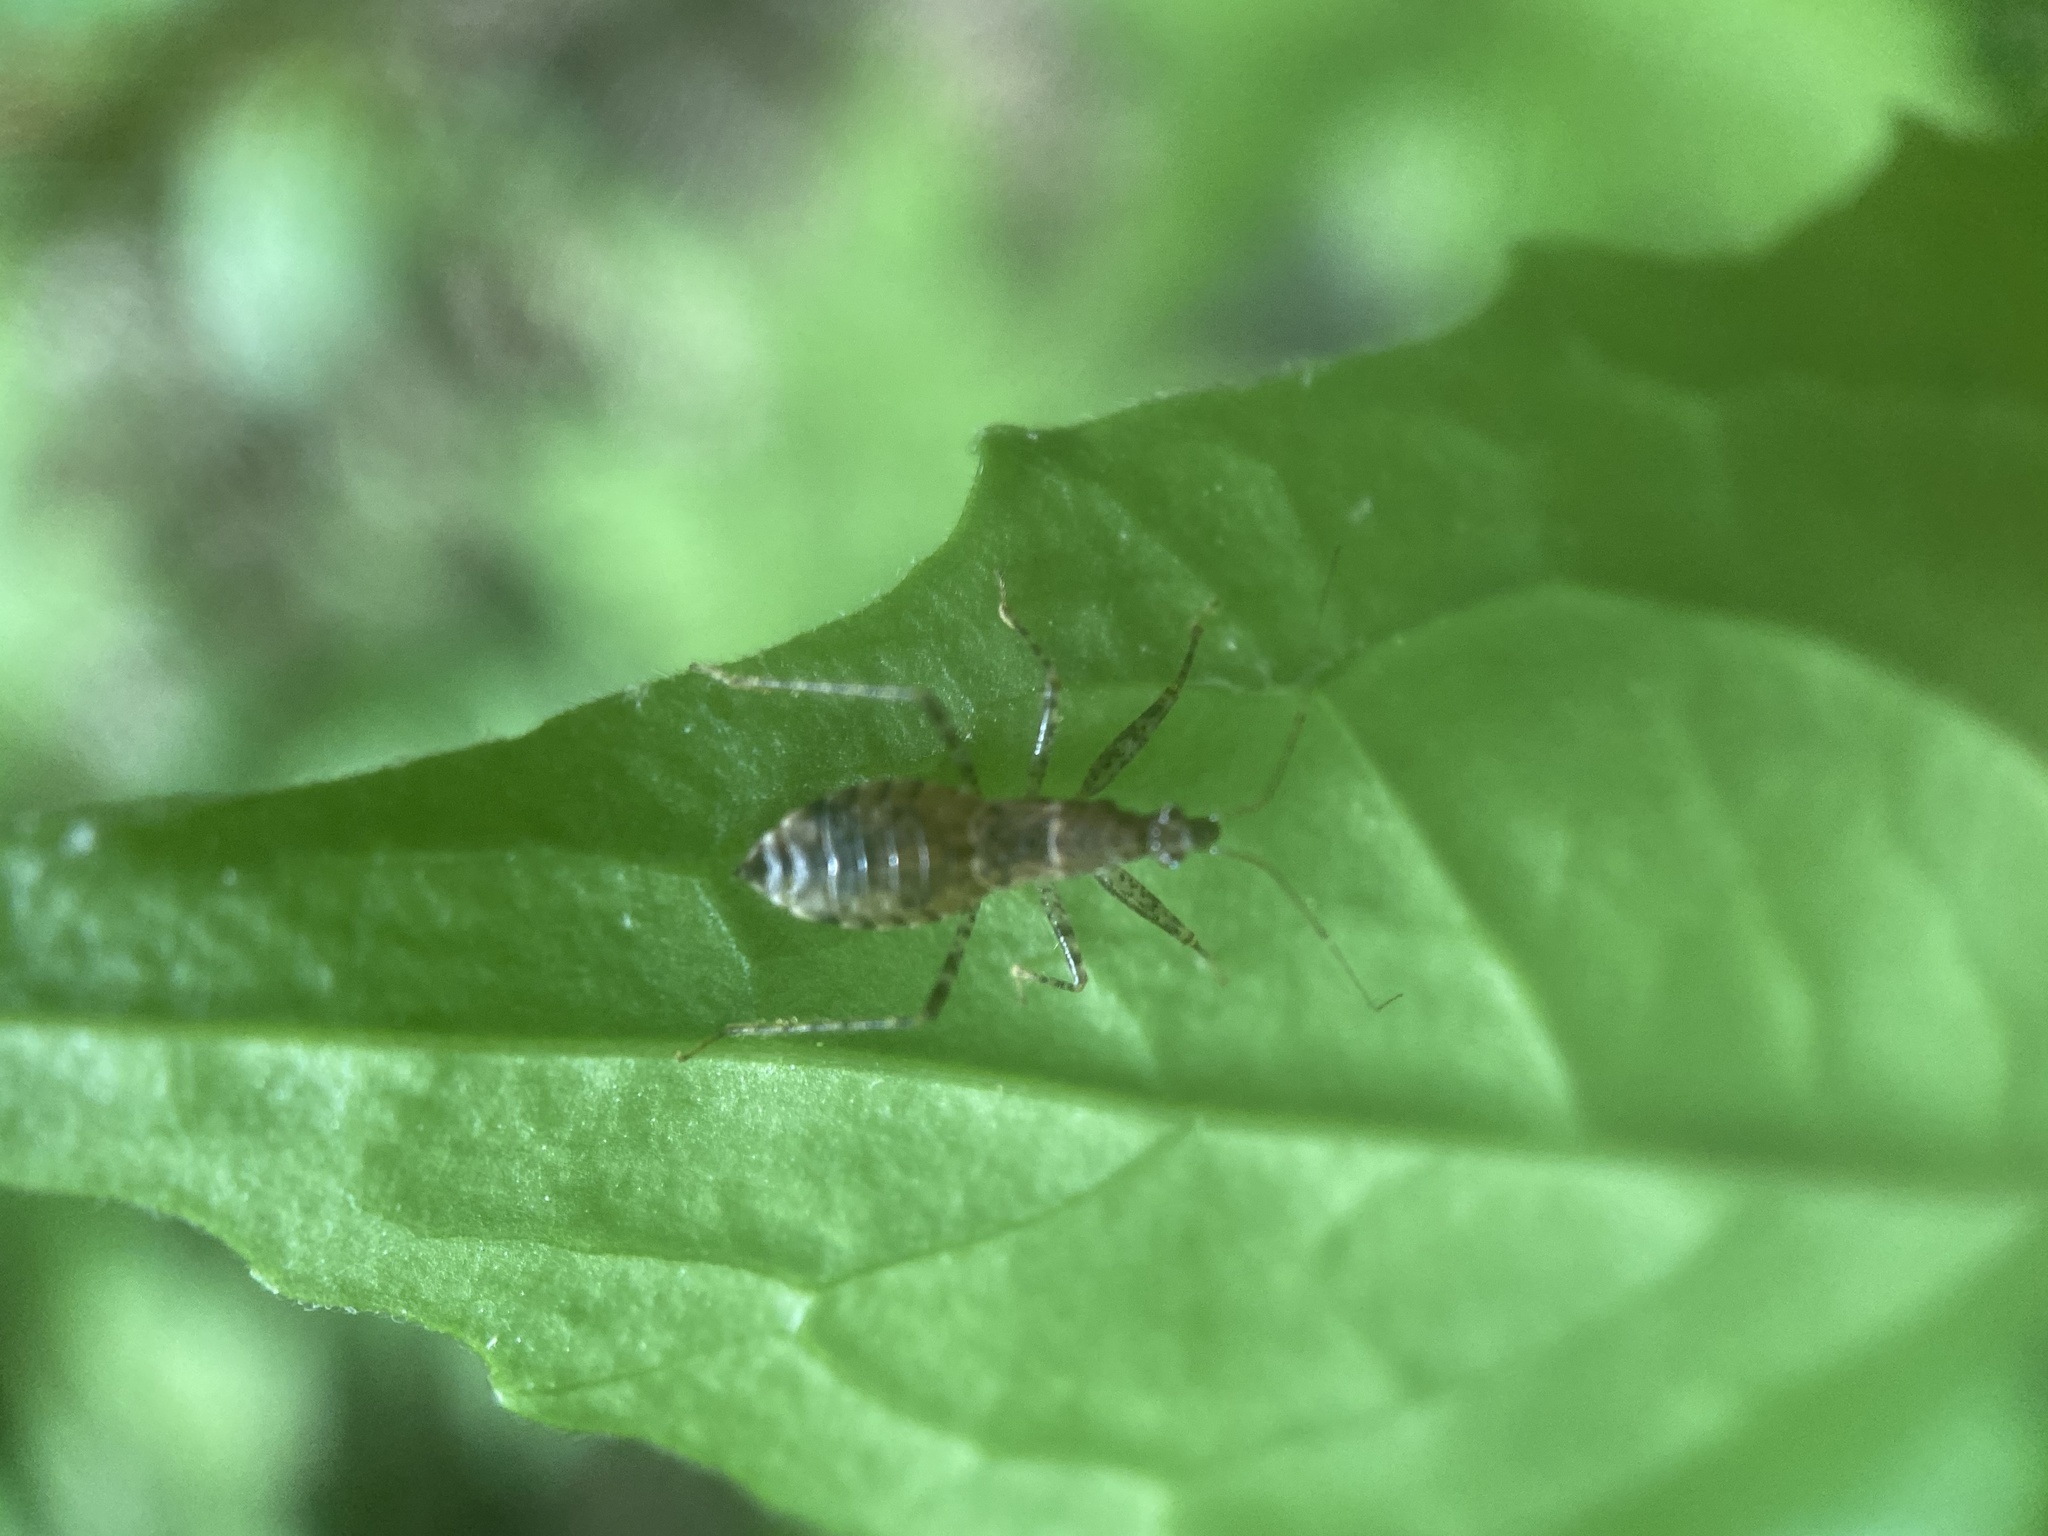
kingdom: Animalia
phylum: Arthropoda
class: Insecta
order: Hemiptera
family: Nabidae
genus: Hoplistoscelis
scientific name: Hoplistoscelis pallescens
